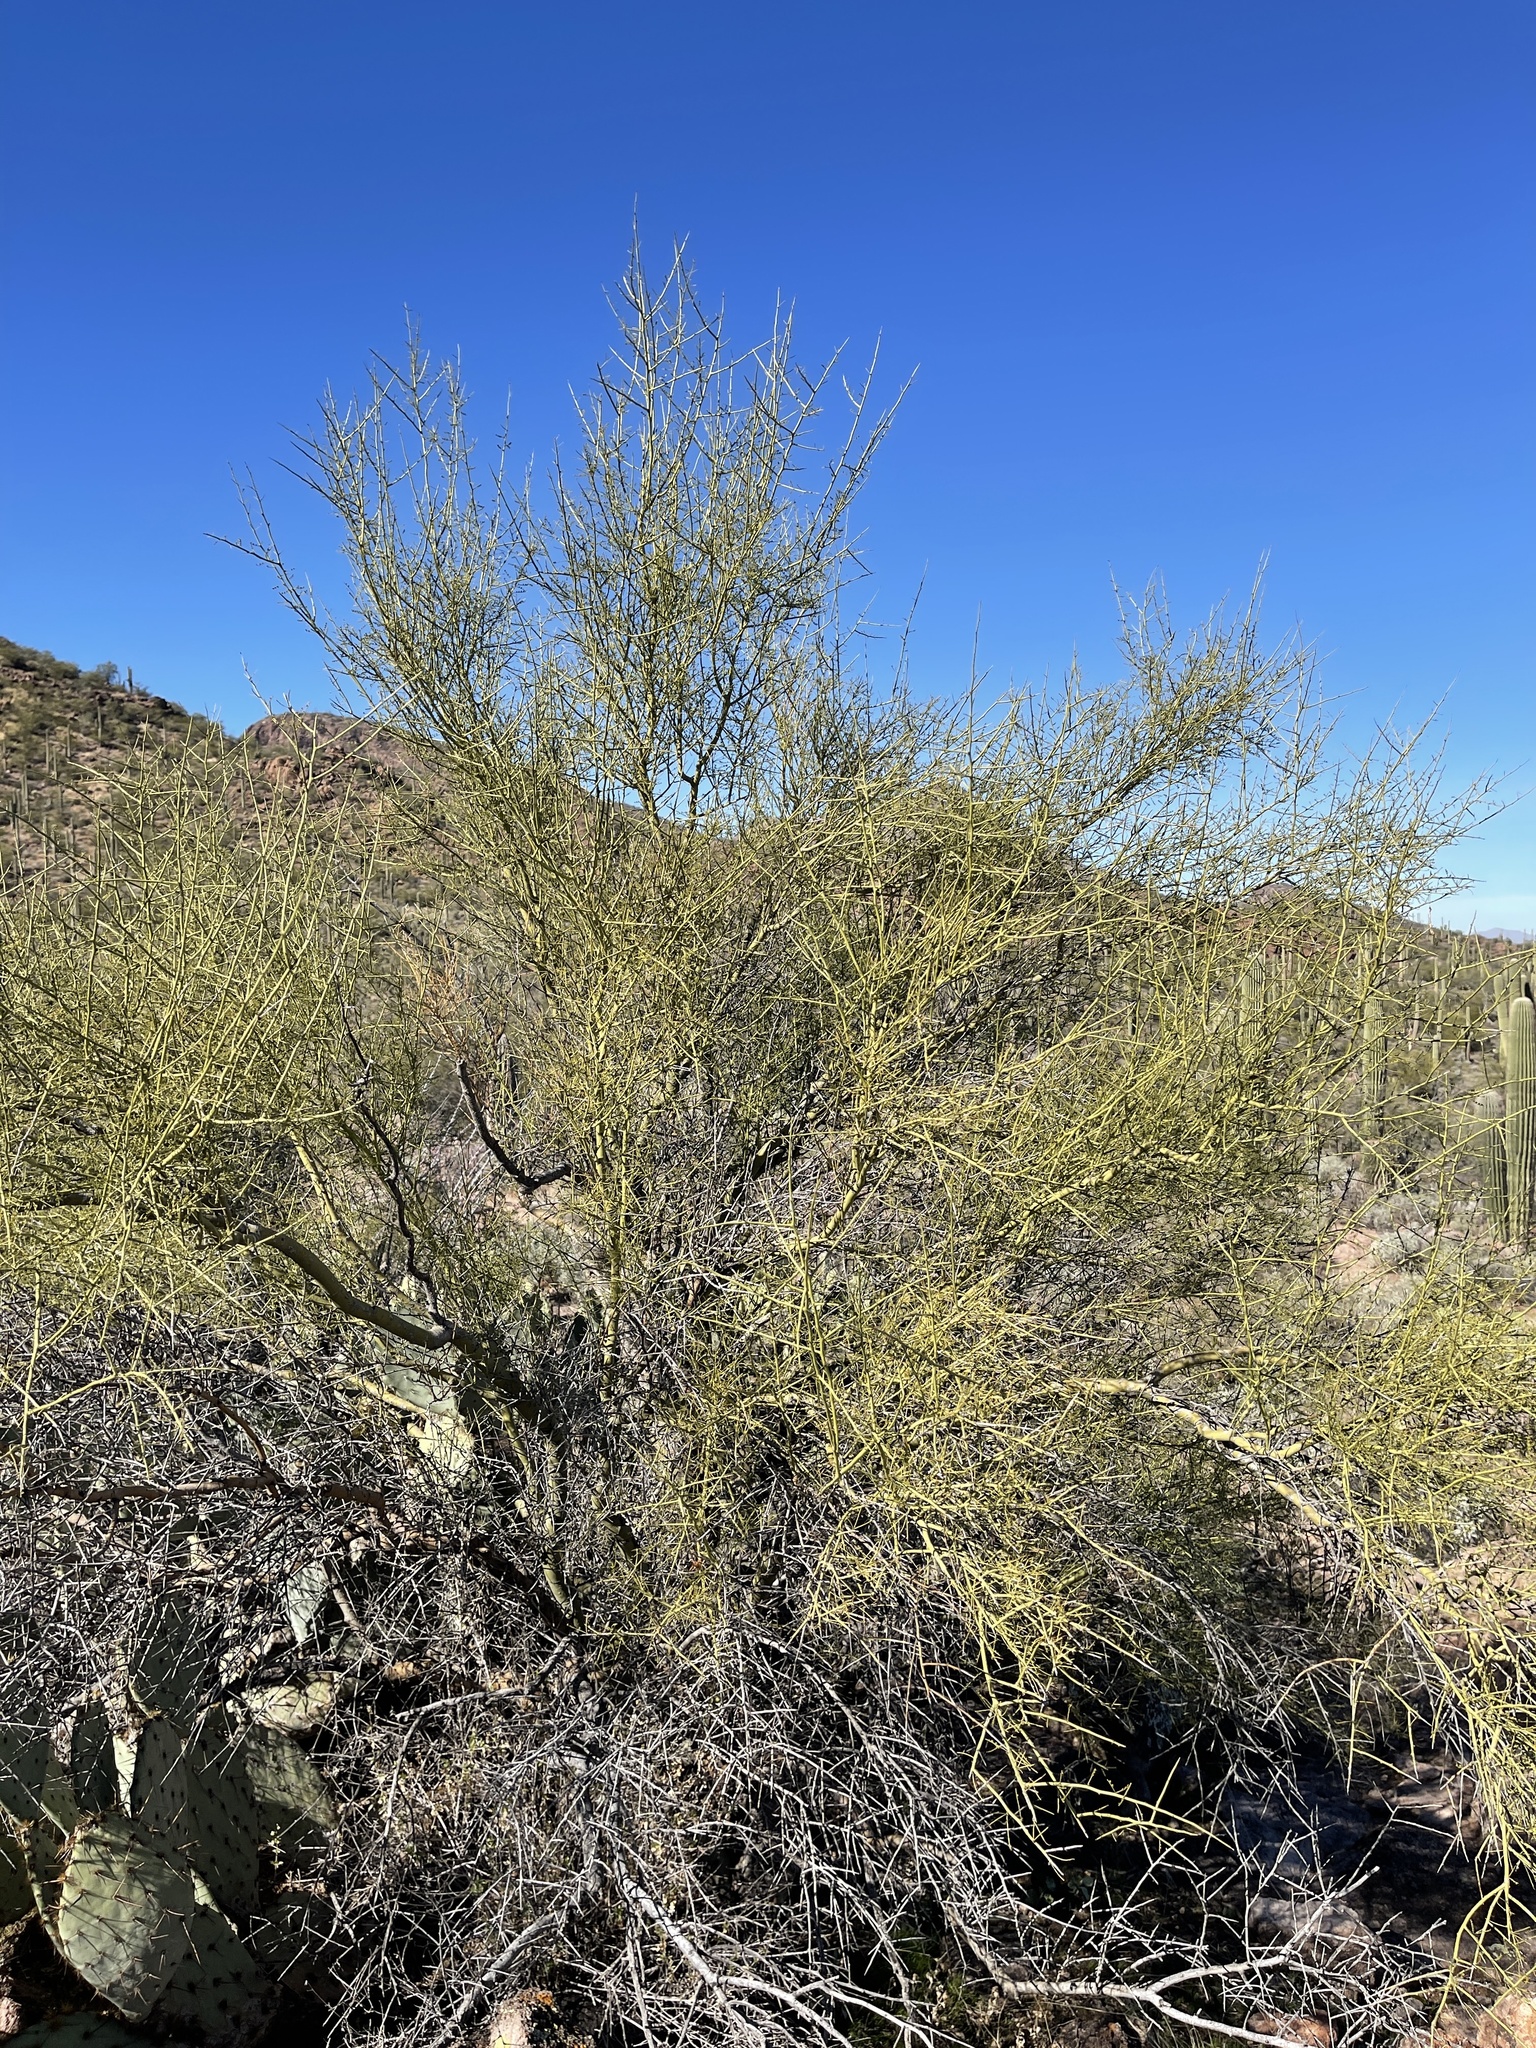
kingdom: Plantae
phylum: Tracheophyta
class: Magnoliopsida
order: Fabales
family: Fabaceae
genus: Parkinsonia
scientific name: Parkinsonia microphylla
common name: Yellow paloverde
